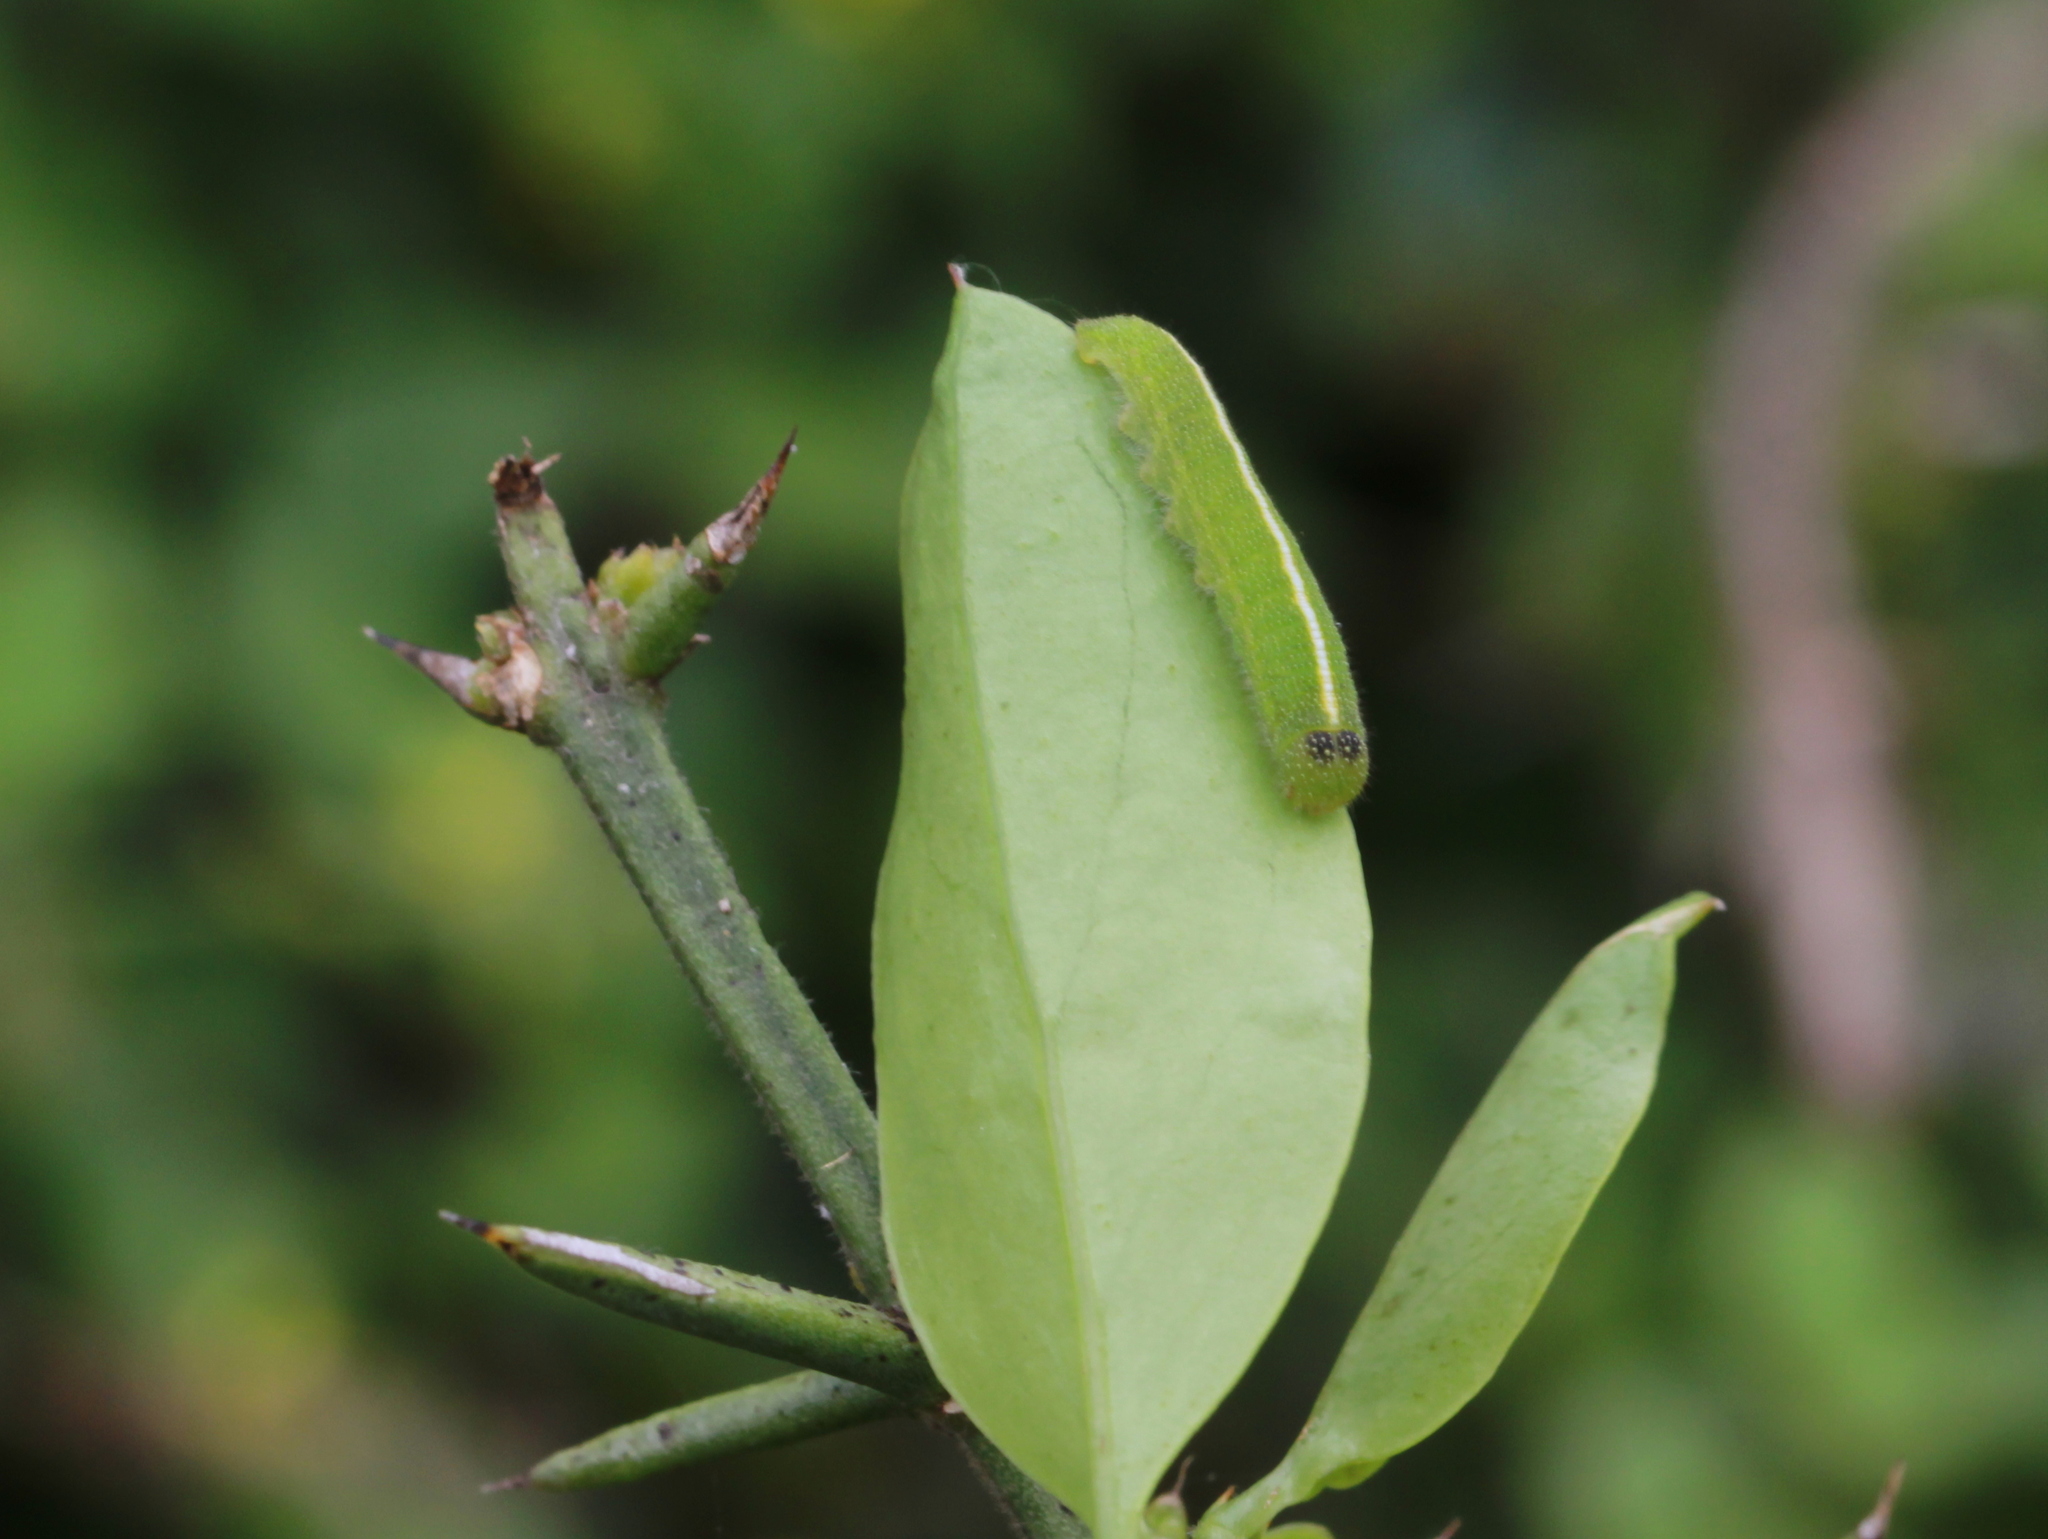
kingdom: Animalia
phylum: Arthropoda
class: Insecta
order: Lepidoptera
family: Pieridae
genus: Colotis
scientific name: Colotis amata
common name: Small salmon arab
